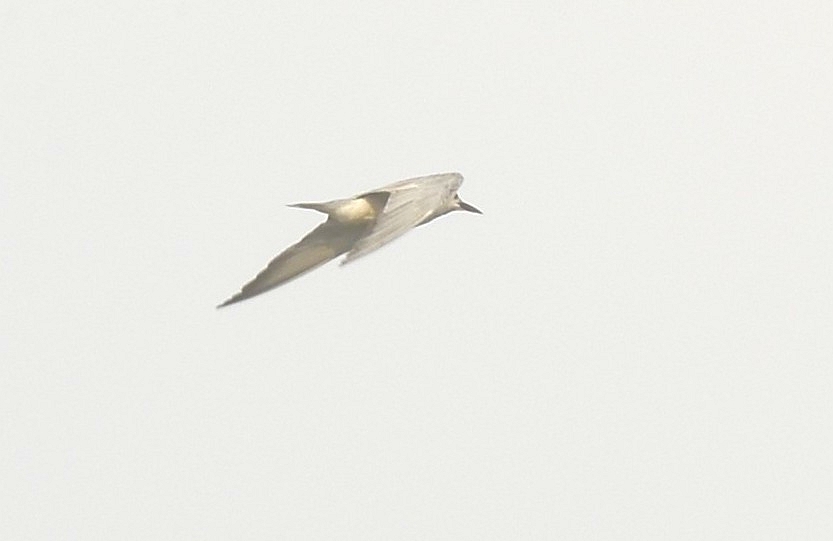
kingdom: Animalia
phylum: Chordata
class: Aves
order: Charadriiformes
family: Laridae
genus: Chlidonias
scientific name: Chlidonias hybrida
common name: Whiskered tern
